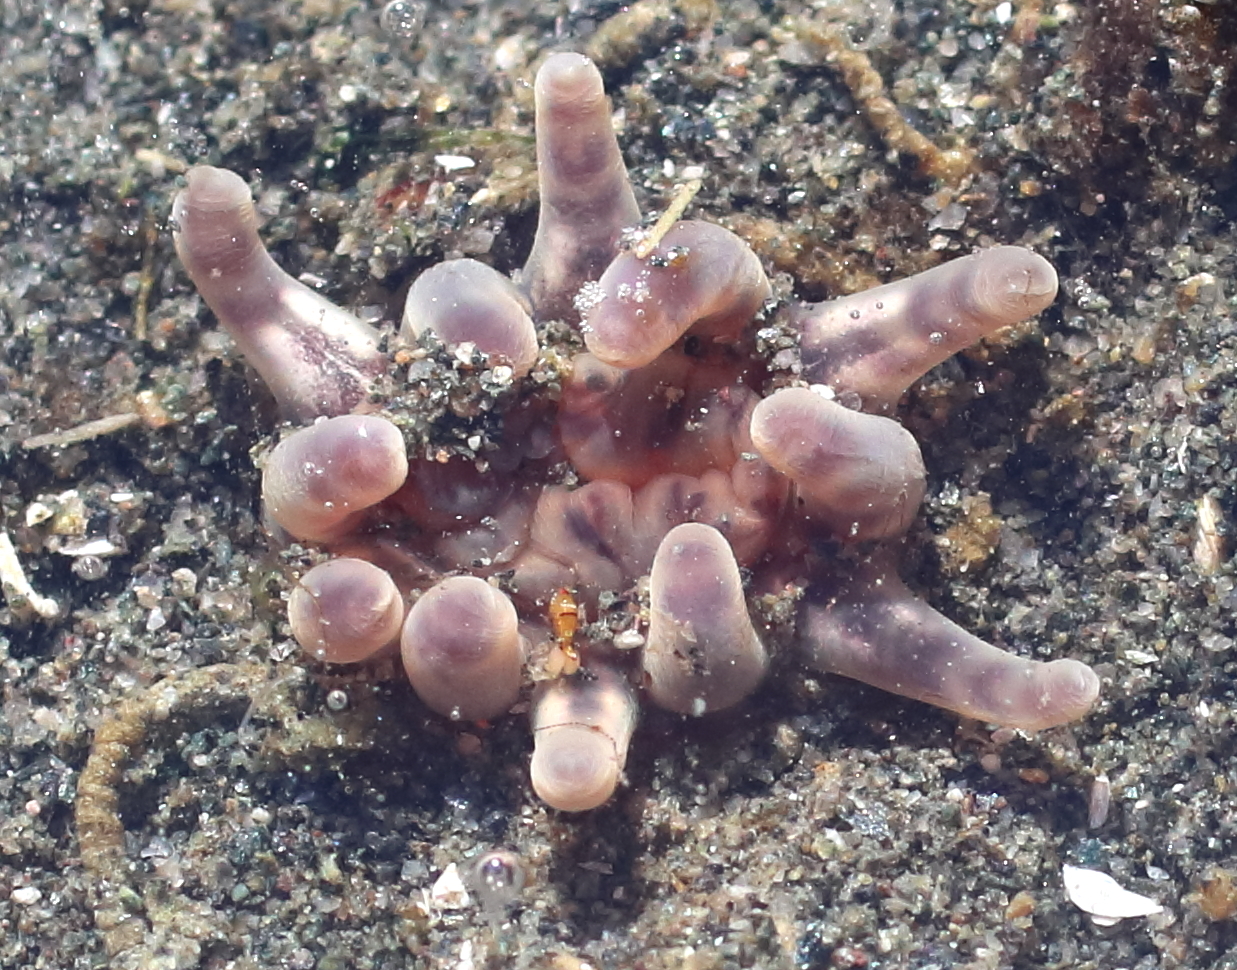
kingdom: Animalia
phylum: Cnidaria
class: Anthozoa
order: Actiniaria
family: Peachiidae
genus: Peachia
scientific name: Peachia quinquecapitata
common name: Twelve-tentacled parasitic anemone
